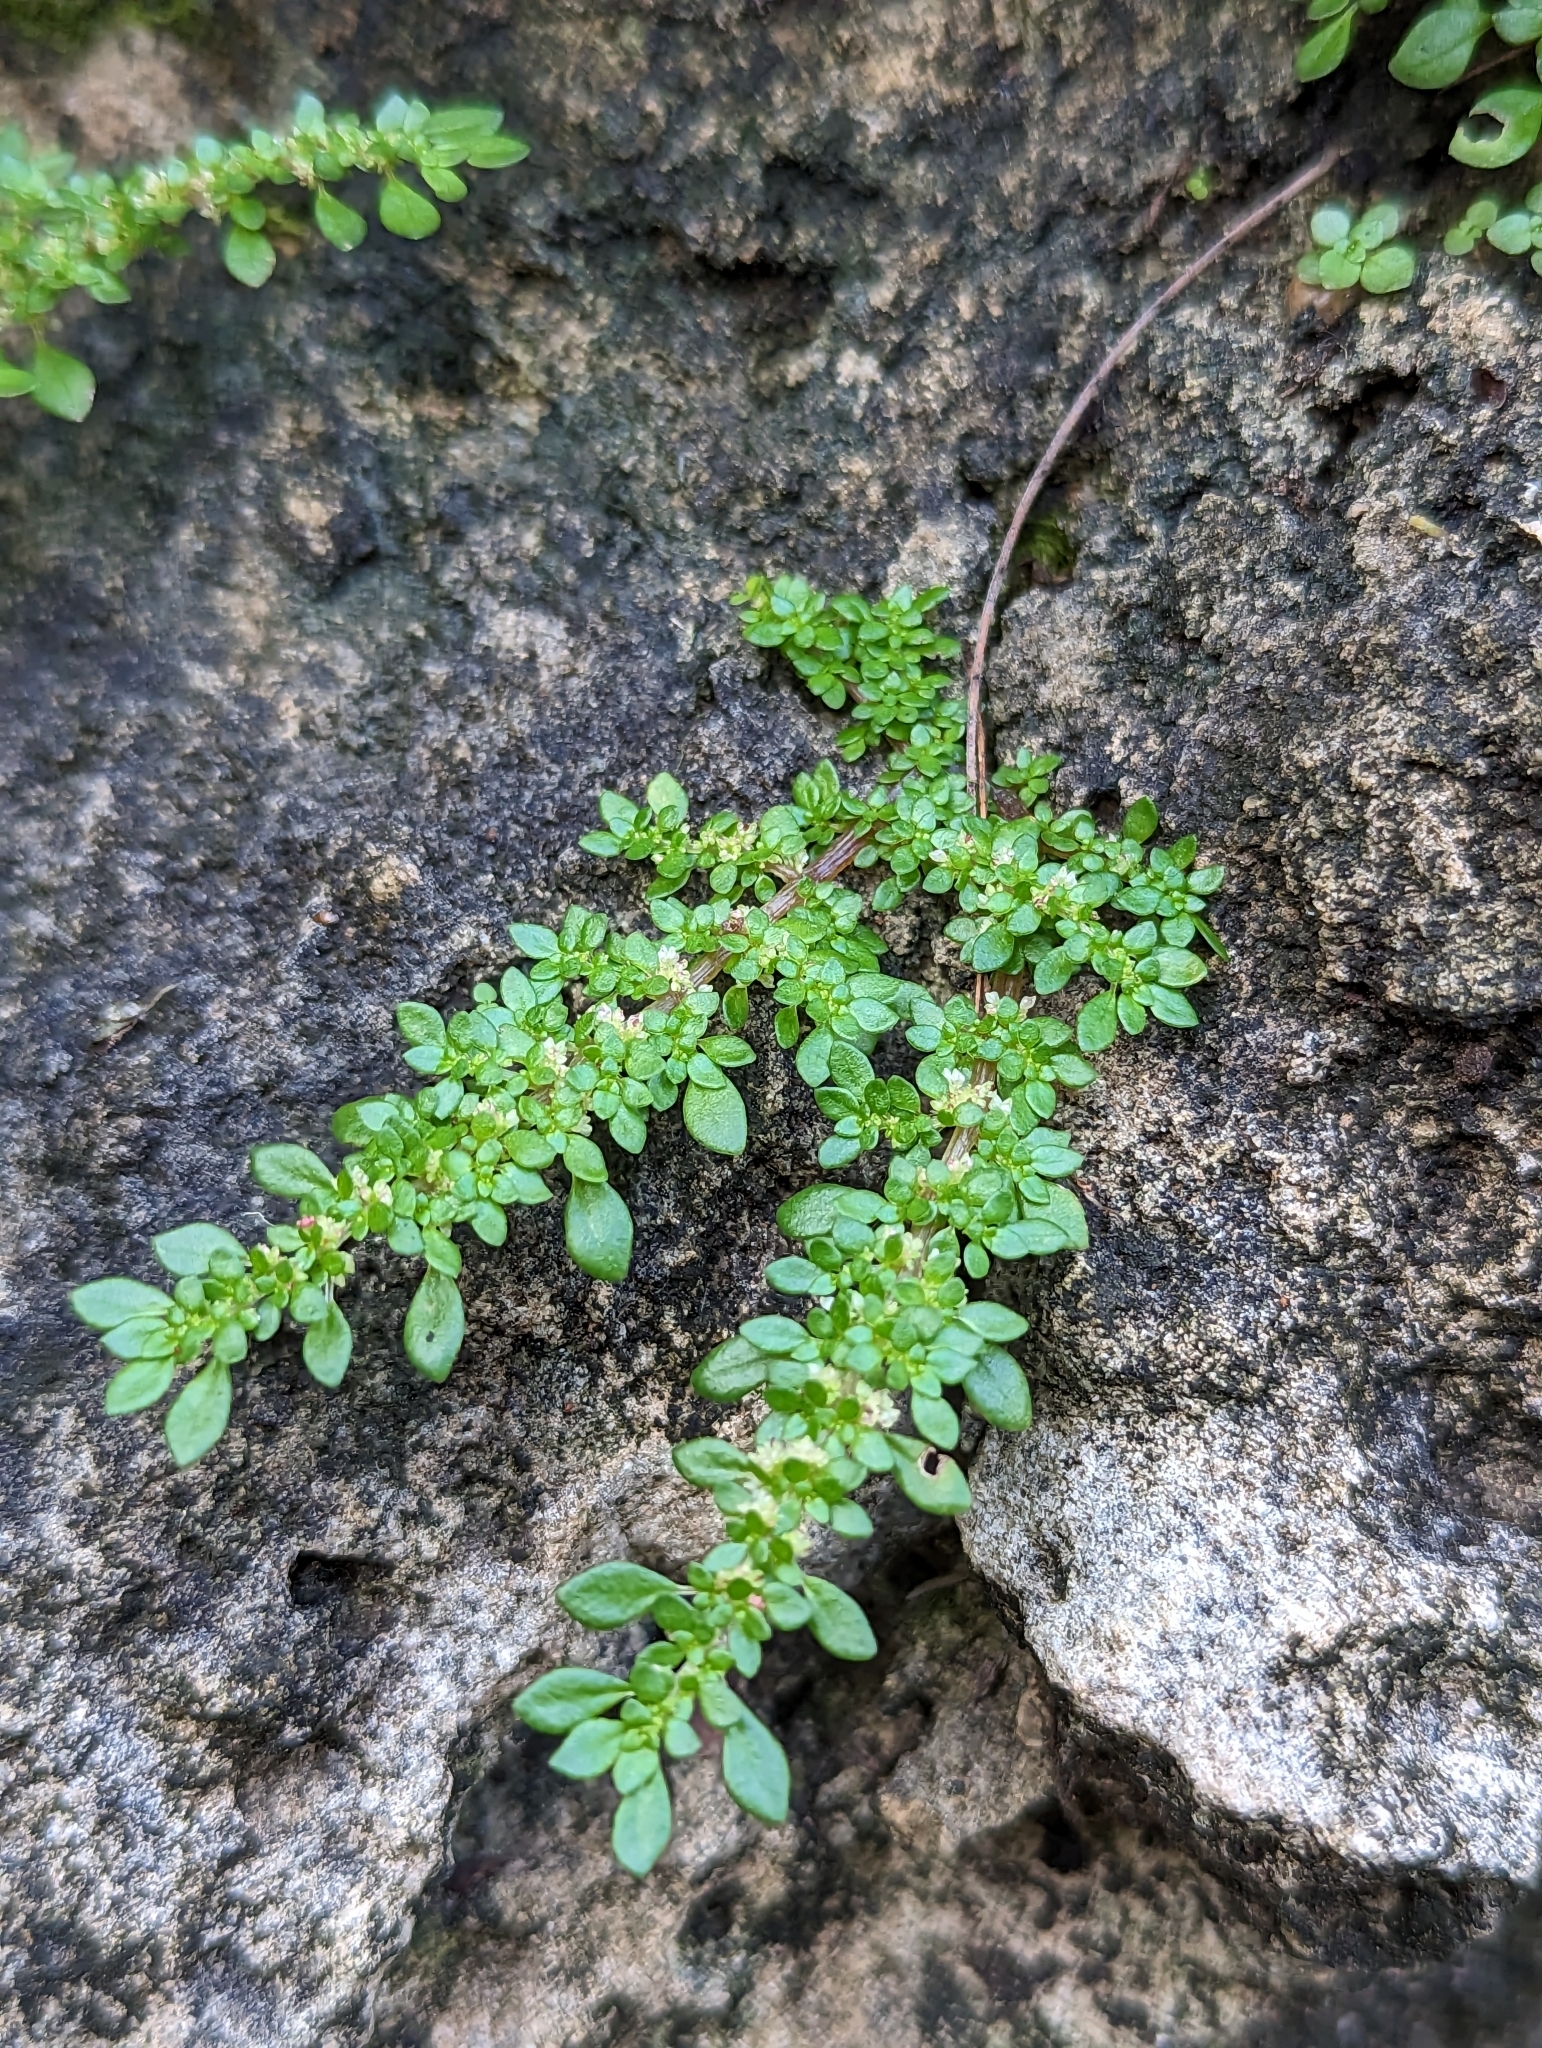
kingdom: Plantae
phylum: Tracheophyta
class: Magnoliopsida
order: Rosales
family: Urticaceae
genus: Pilea
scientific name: Pilea microphylla
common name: Artillery-plant
